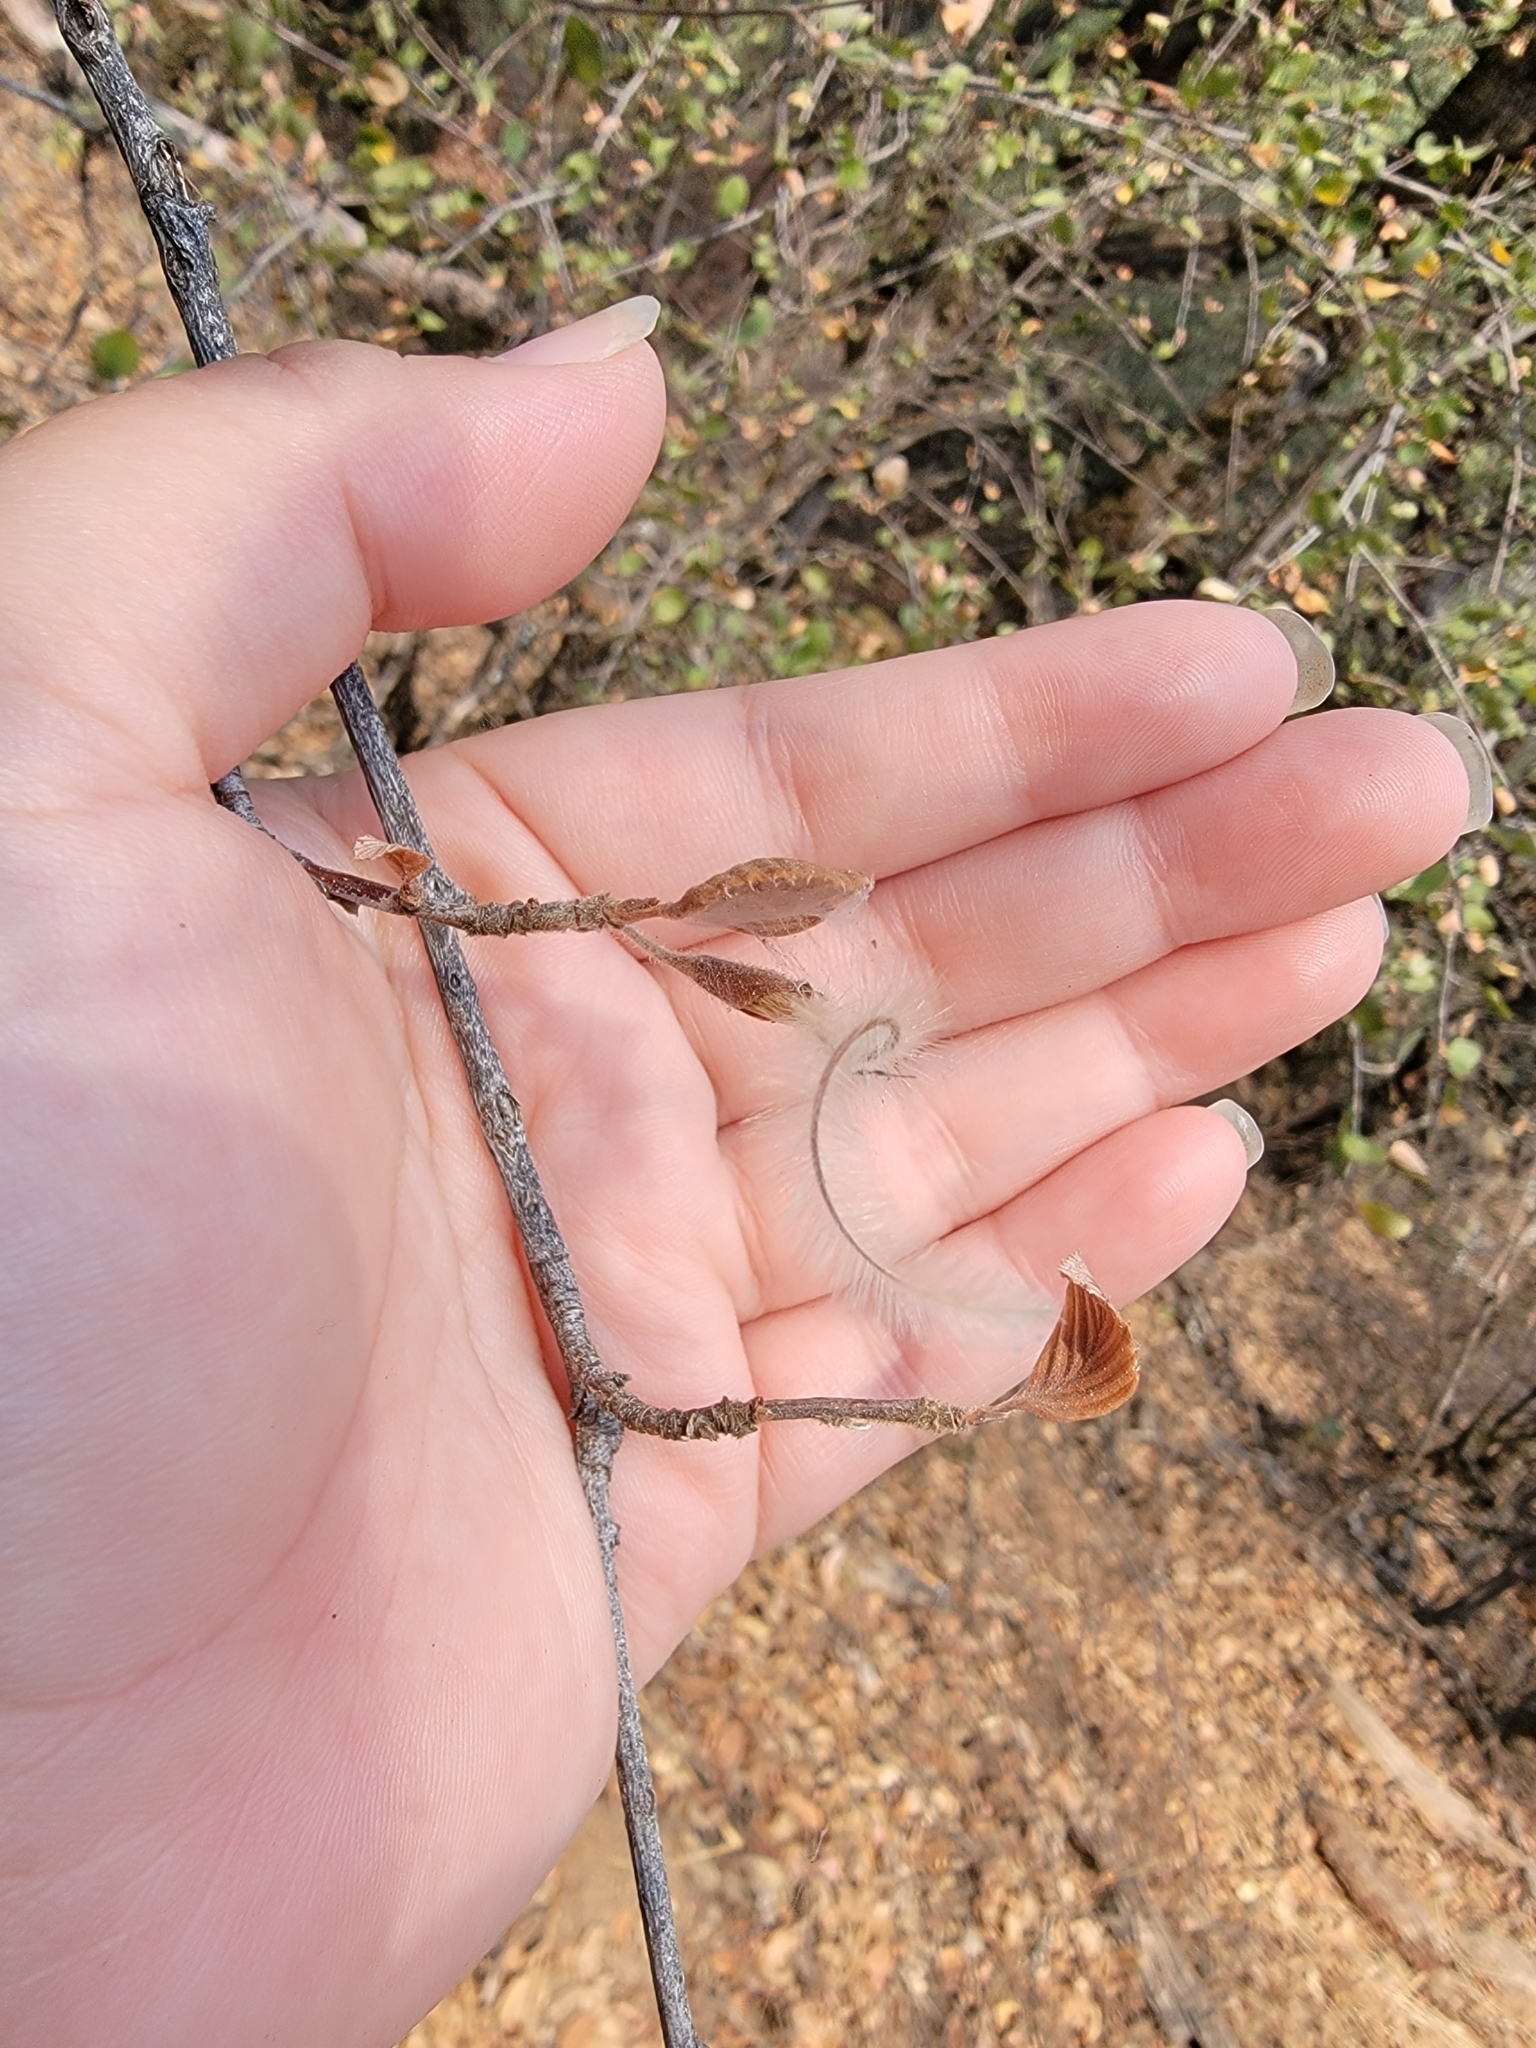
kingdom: Plantae
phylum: Tracheophyta
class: Magnoliopsida
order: Rosales
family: Rosaceae
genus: Cercocarpus
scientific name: Cercocarpus betuloides
